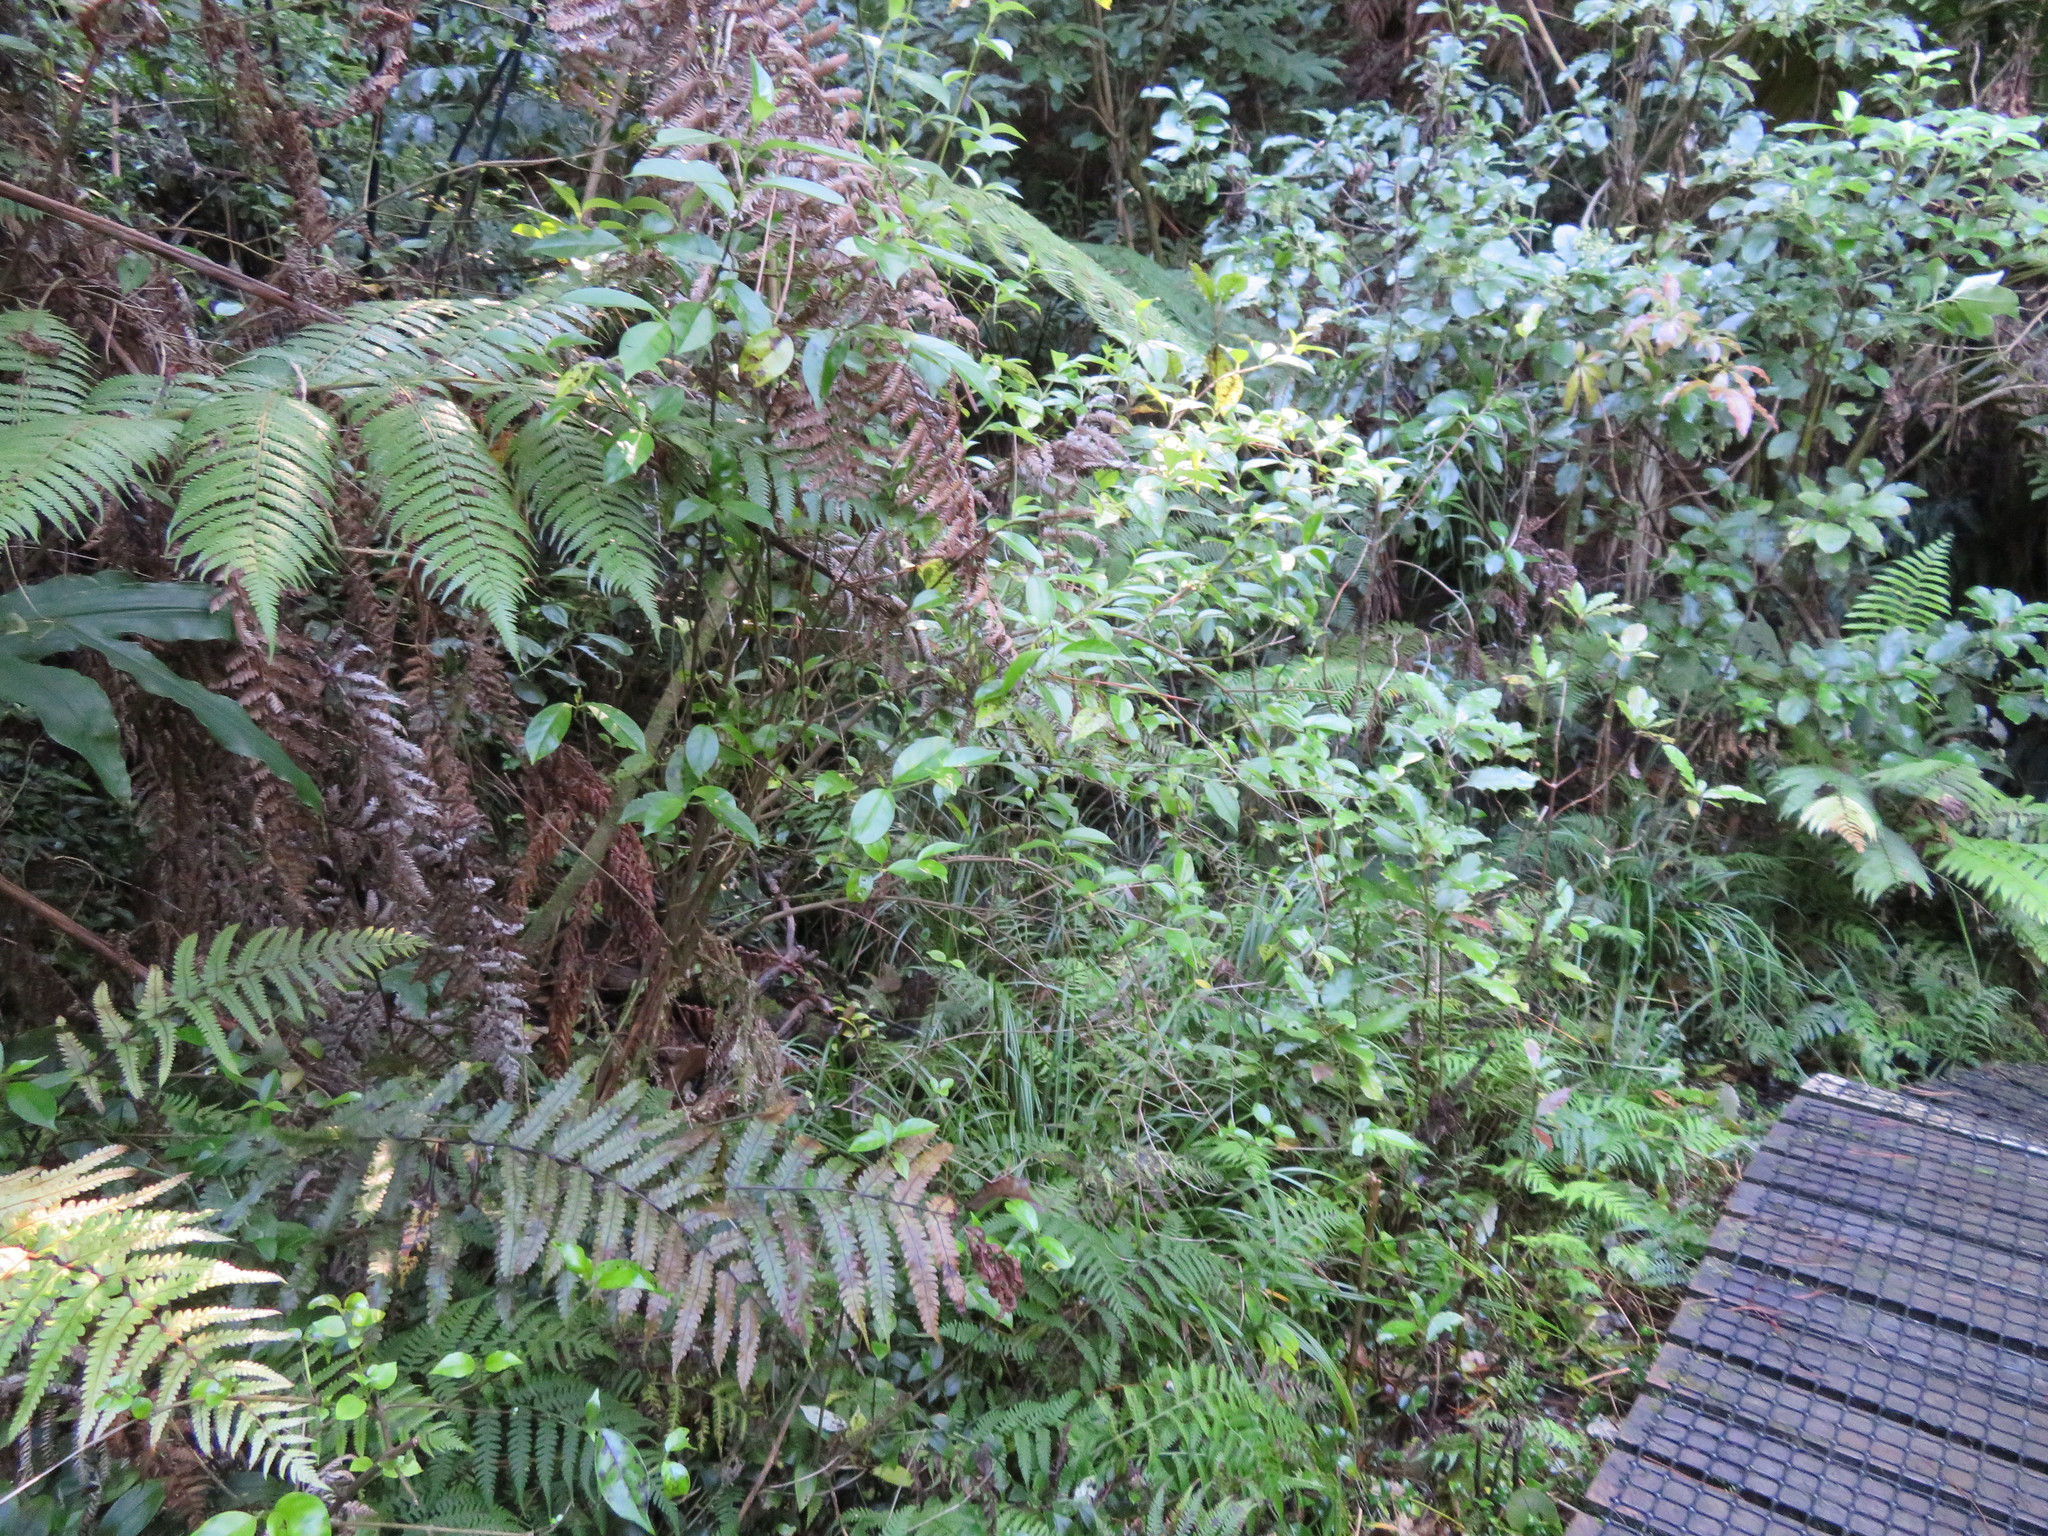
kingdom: Plantae
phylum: Tracheophyta
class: Polypodiopsida
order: Polypodiales
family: Blechnaceae
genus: Parablechnum
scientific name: Parablechnum novae-zelandiae
